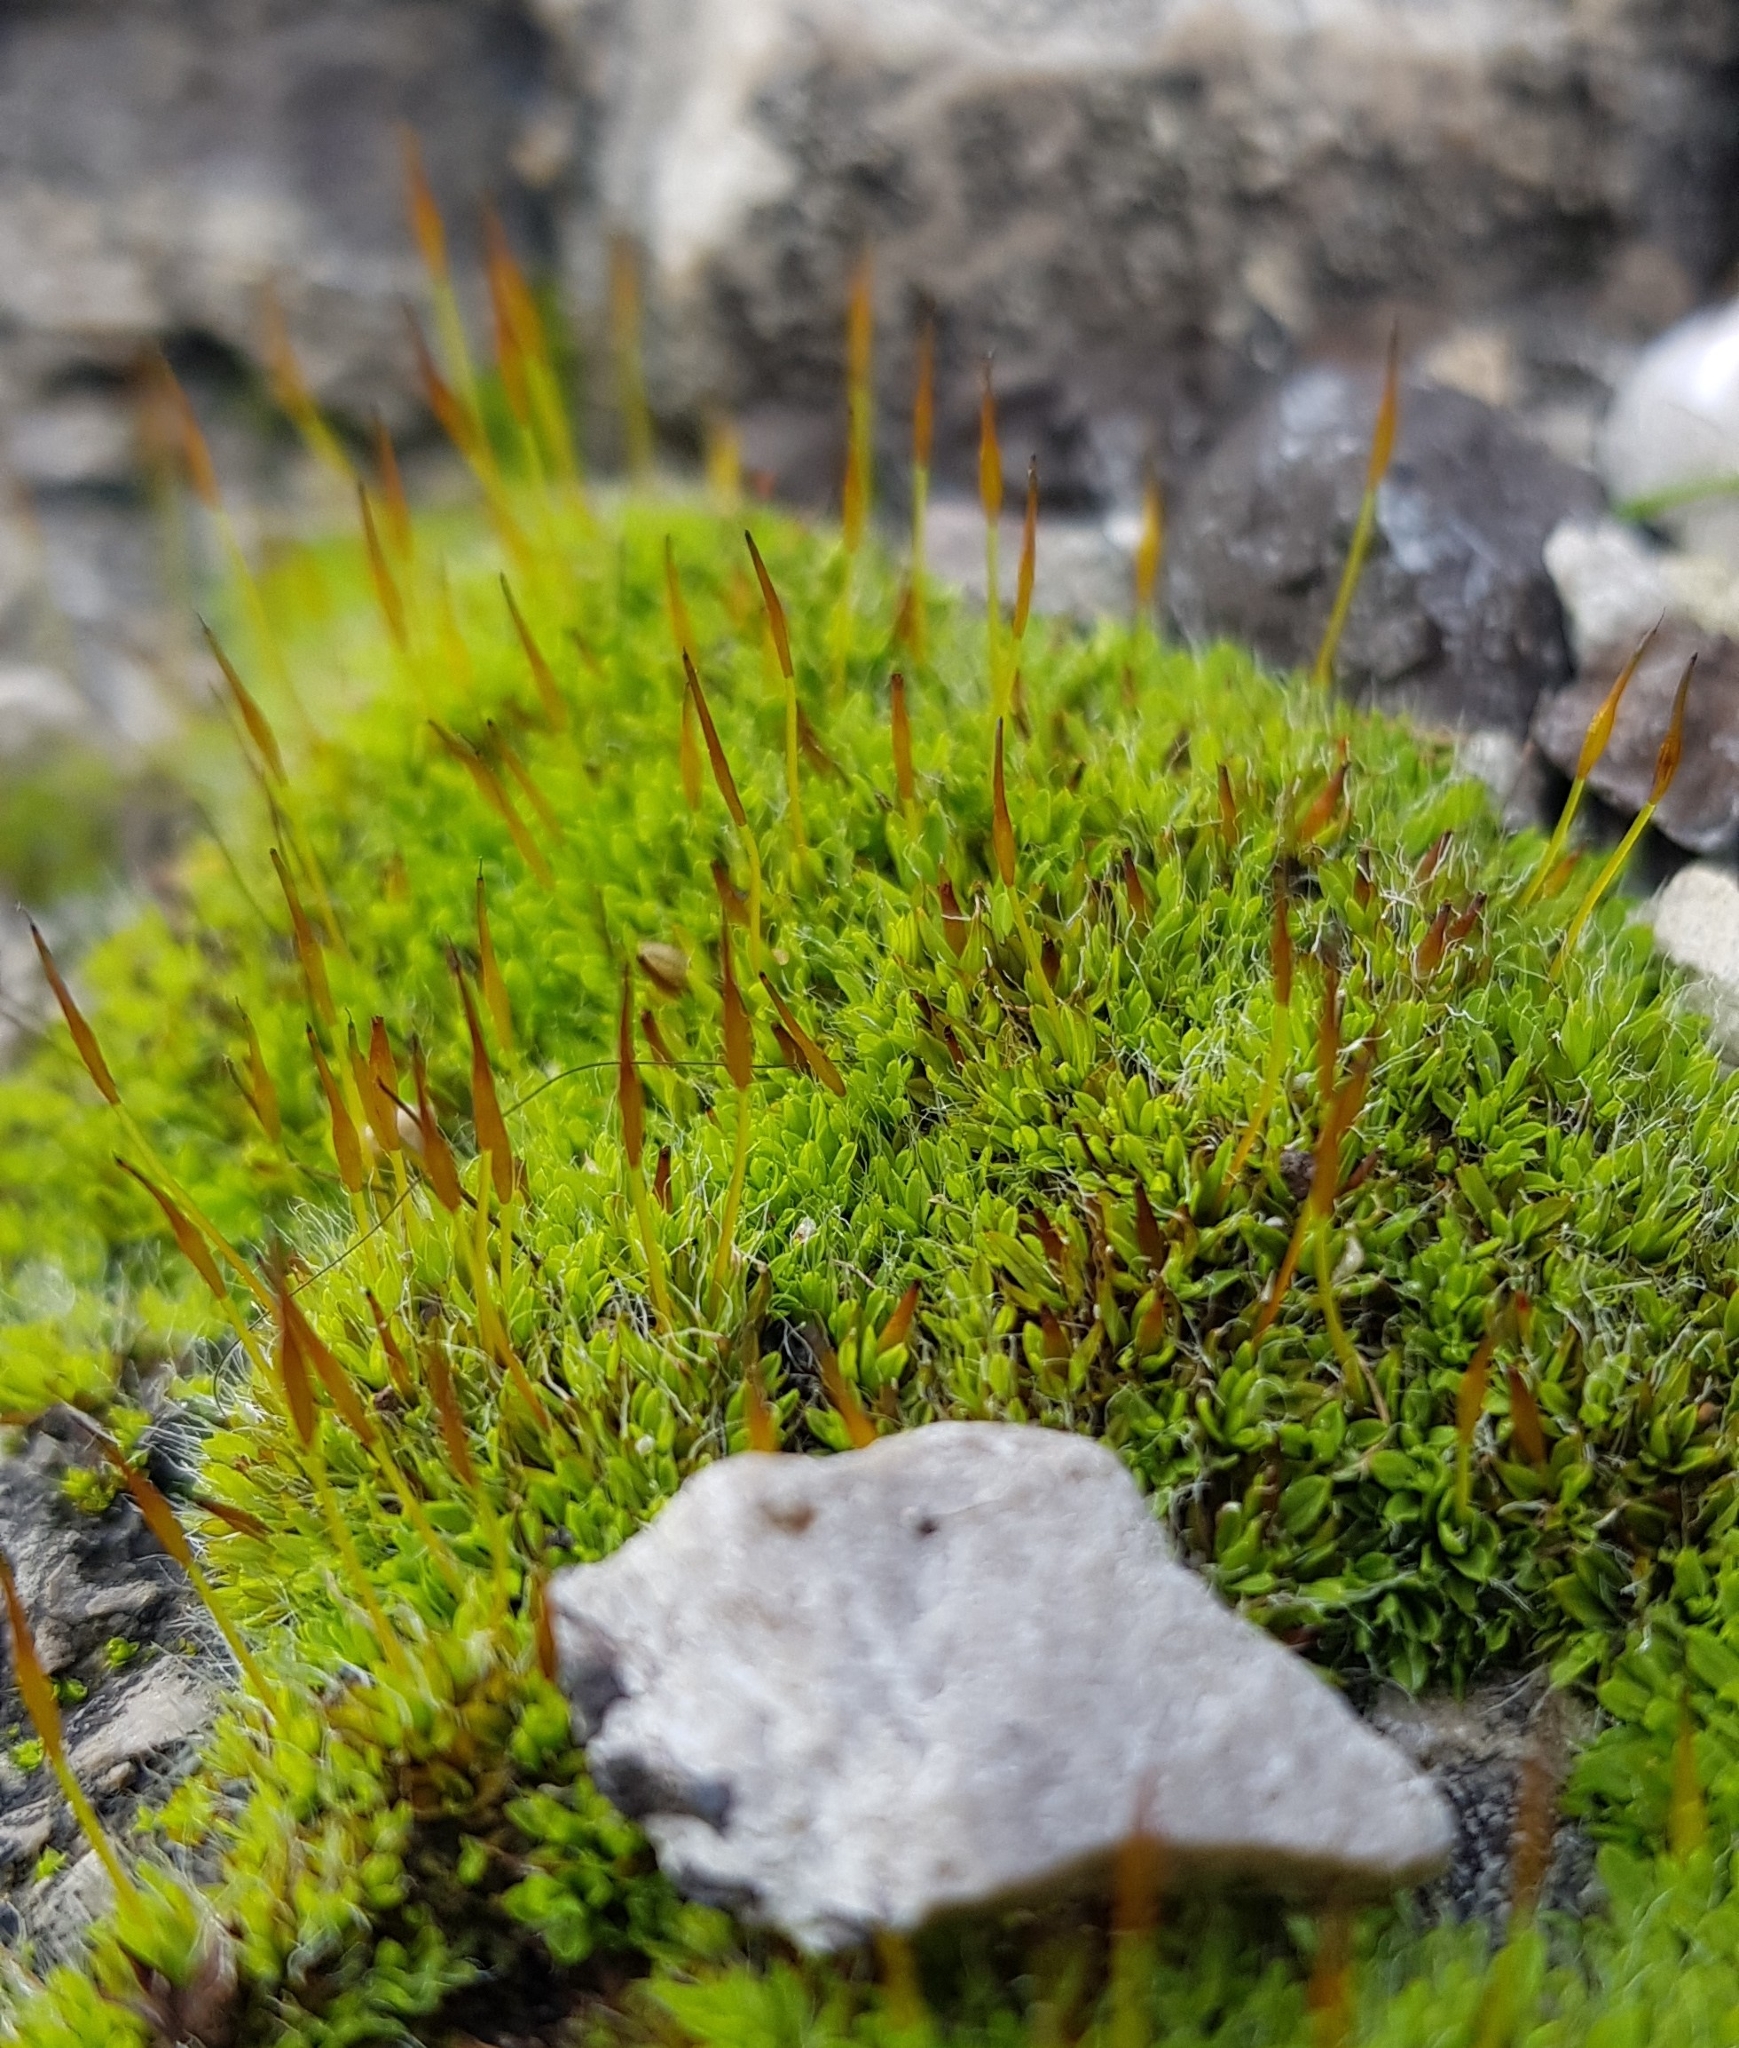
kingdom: Plantae
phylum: Bryophyta
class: Bryopsida
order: Pottiales
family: Pottiaceae
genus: Tortula
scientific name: Tortula muralis
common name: Wall screw-moss
